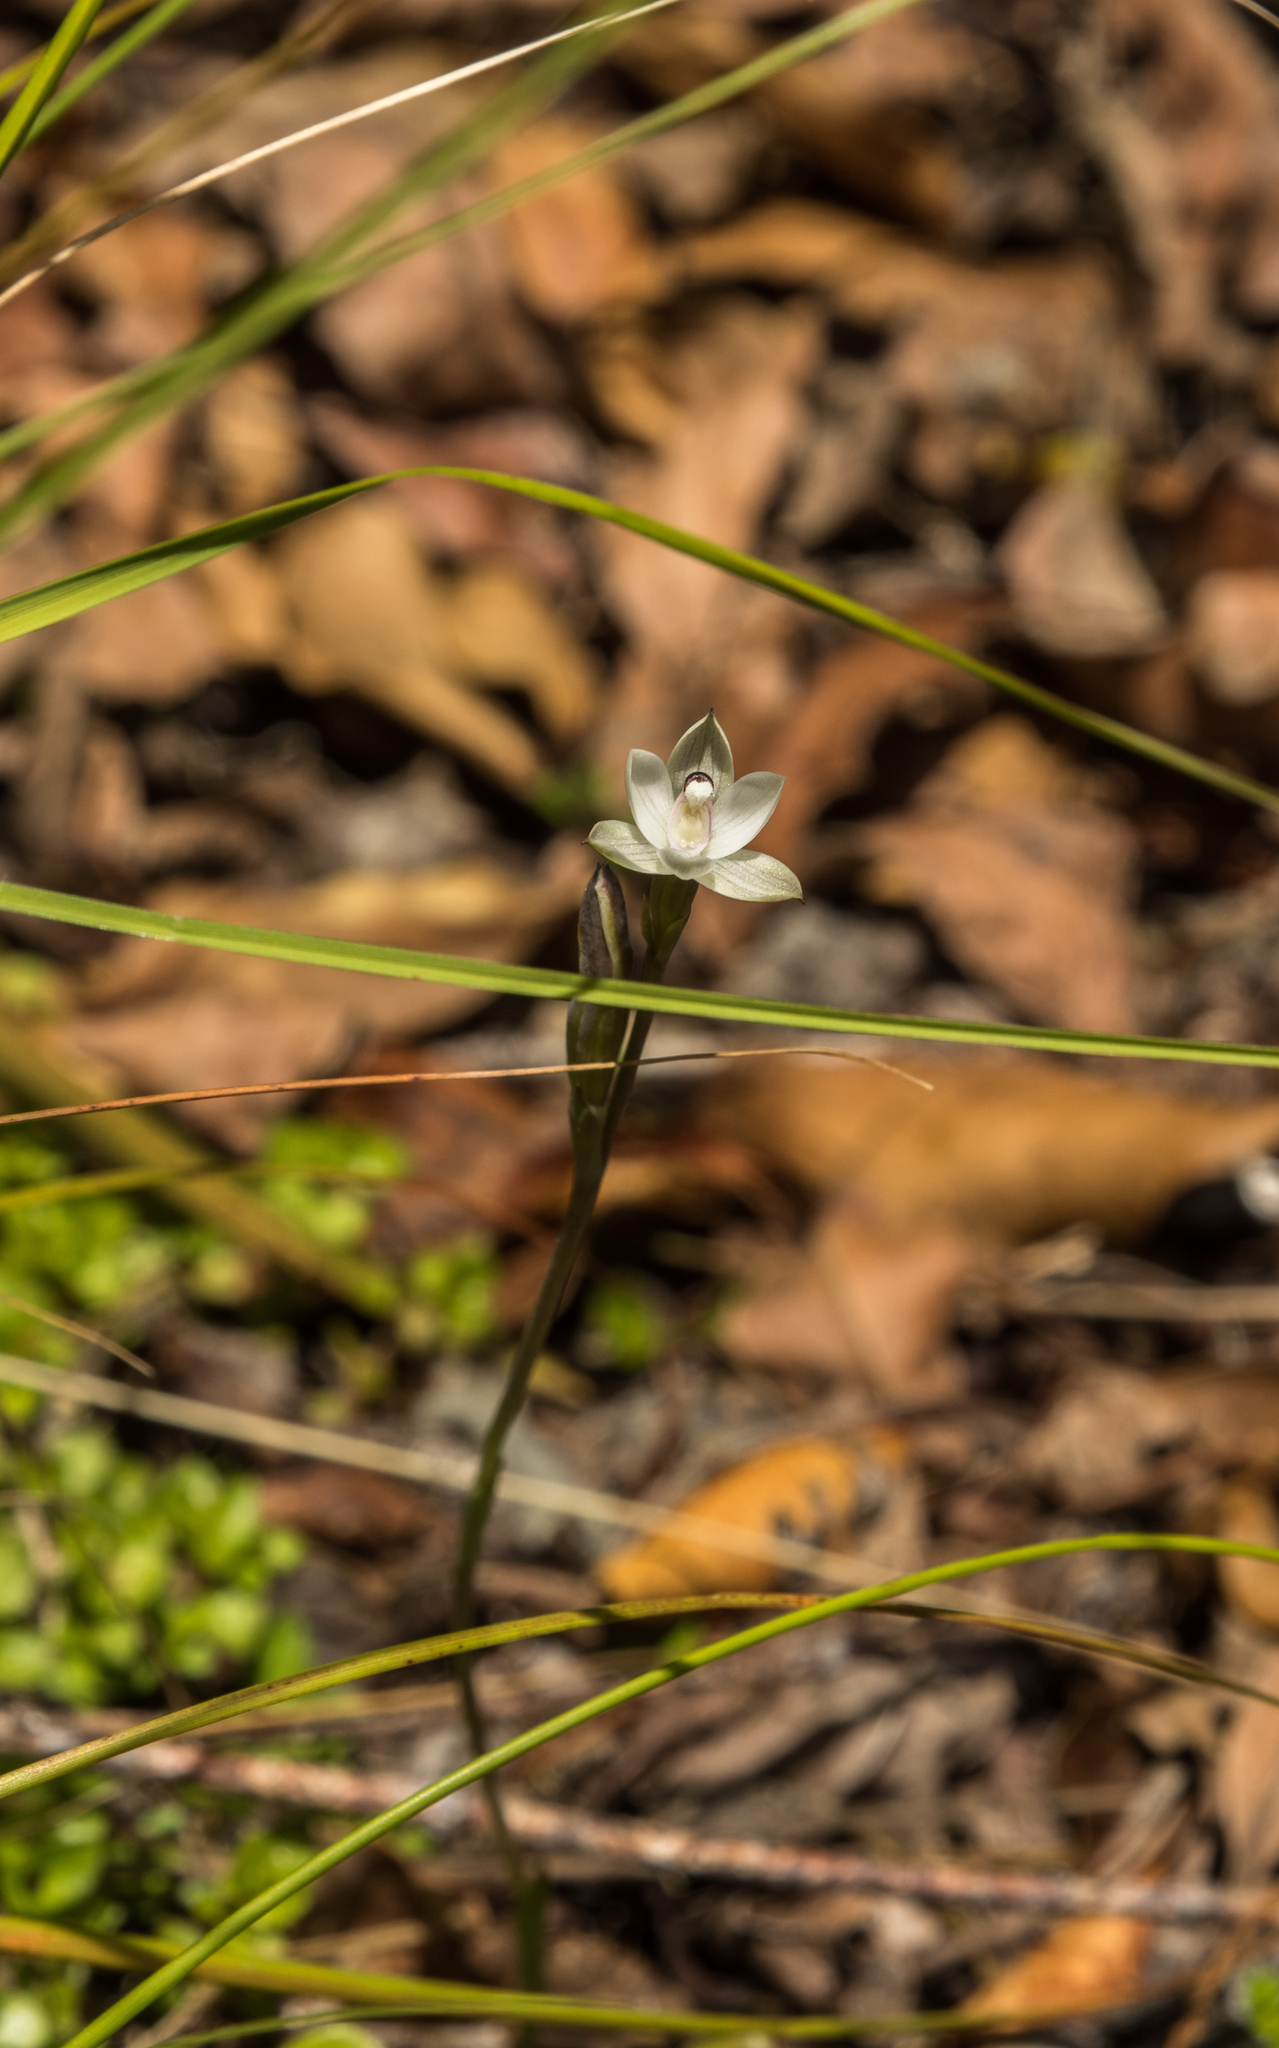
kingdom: Plantae
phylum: Tracheophyta
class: Liliopsida
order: Asparagales
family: Orchidaceae
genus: Thelymitra
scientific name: Thelymitra longifolia
